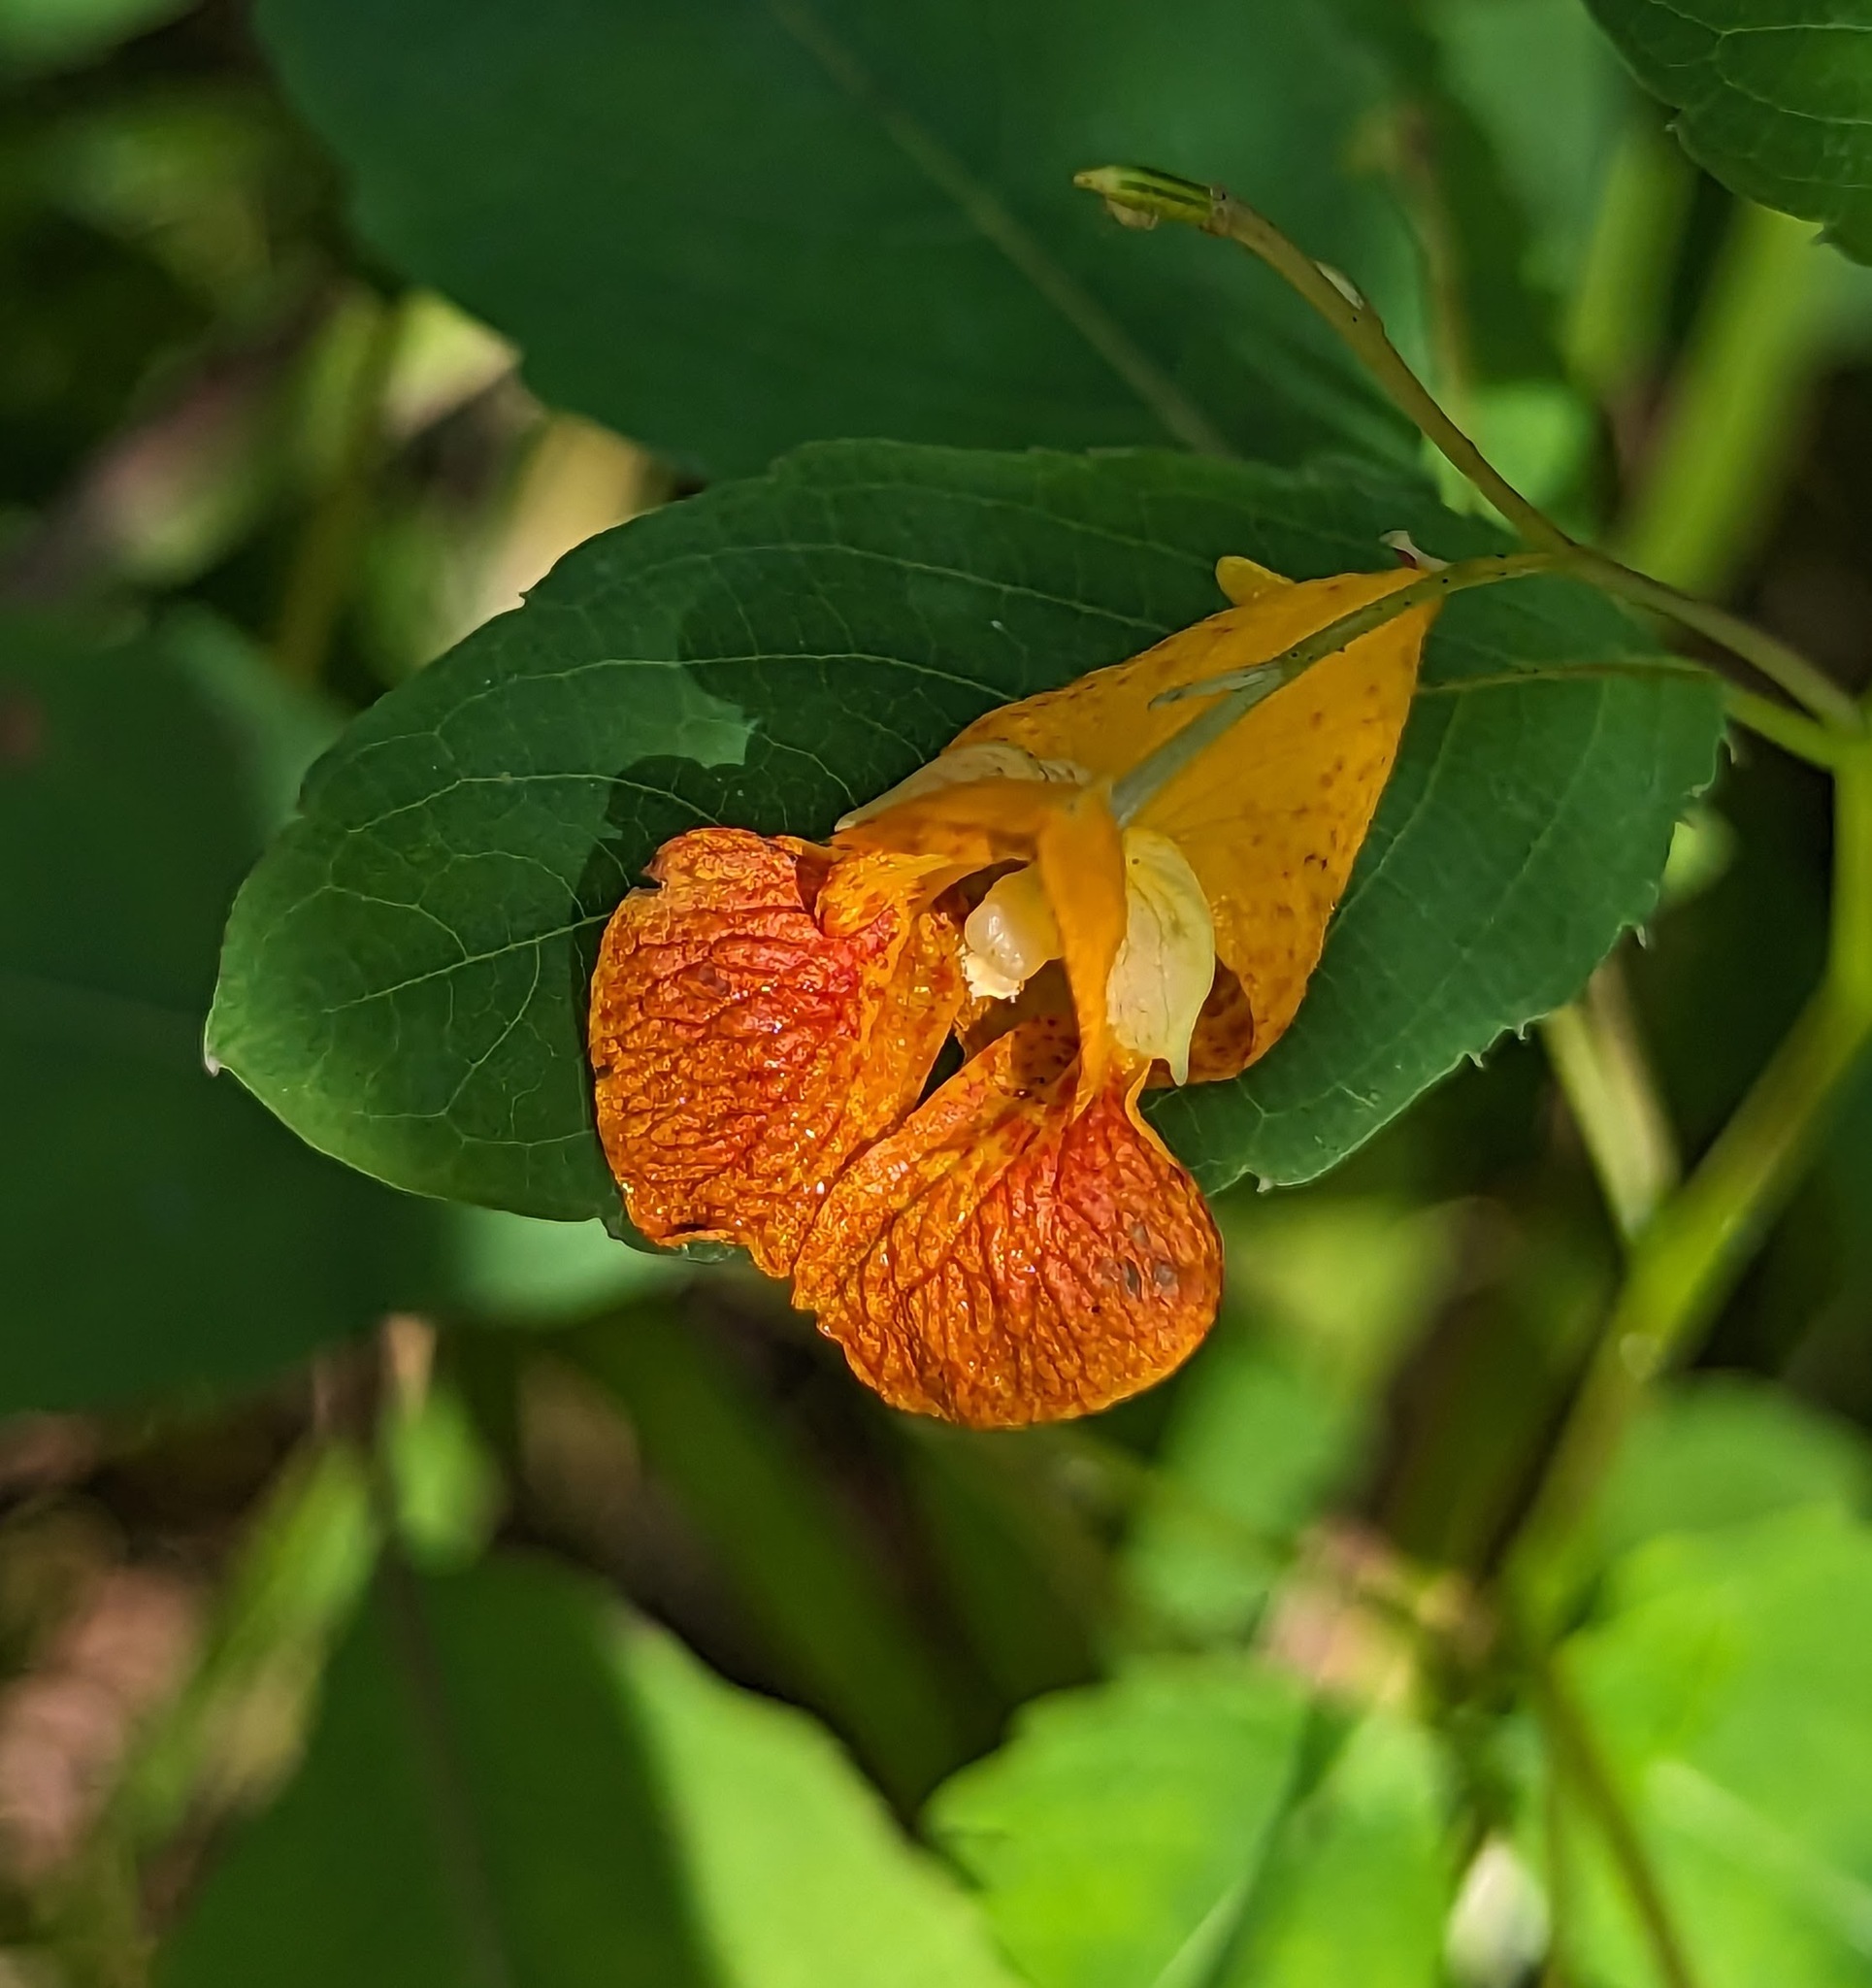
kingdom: Plantae
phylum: Tracheophyta
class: Magnoliopsida
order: Ericales
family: Balsaminaceae
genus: Impatiens
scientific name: Impatiens capensis
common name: Orange balsam
